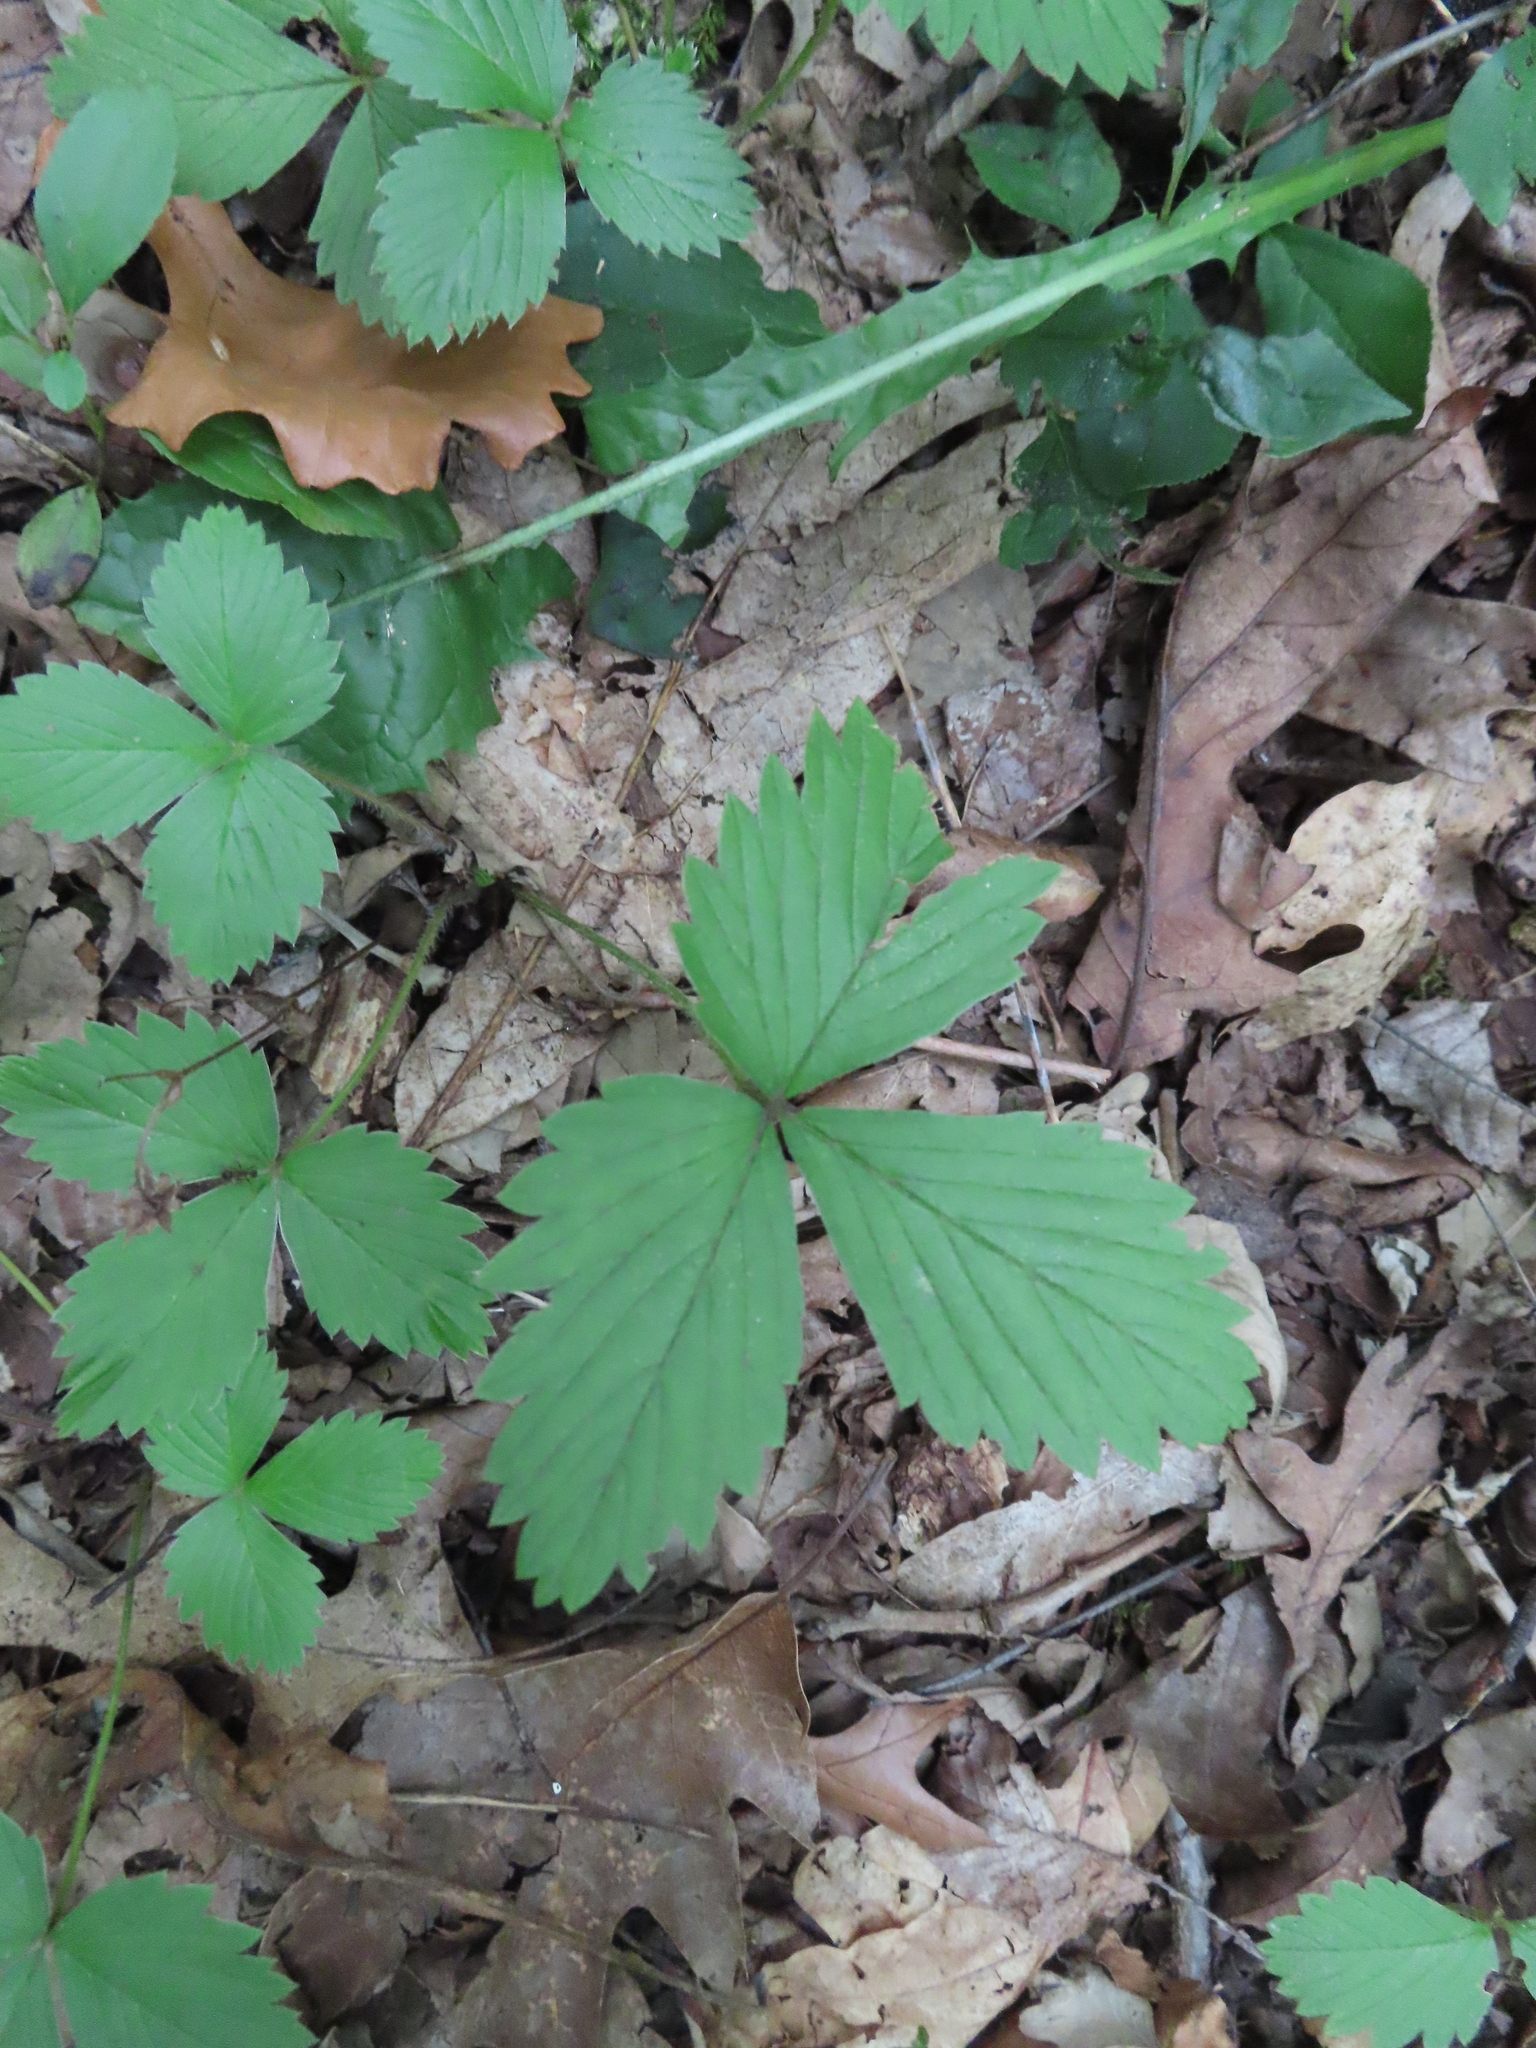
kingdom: Plantae
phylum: Tracheophyta
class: Magnoliopsida
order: Rosales
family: Rosaceae
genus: Fragaria
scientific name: Fragaria virginiana
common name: Thickleaved wild strawberry
